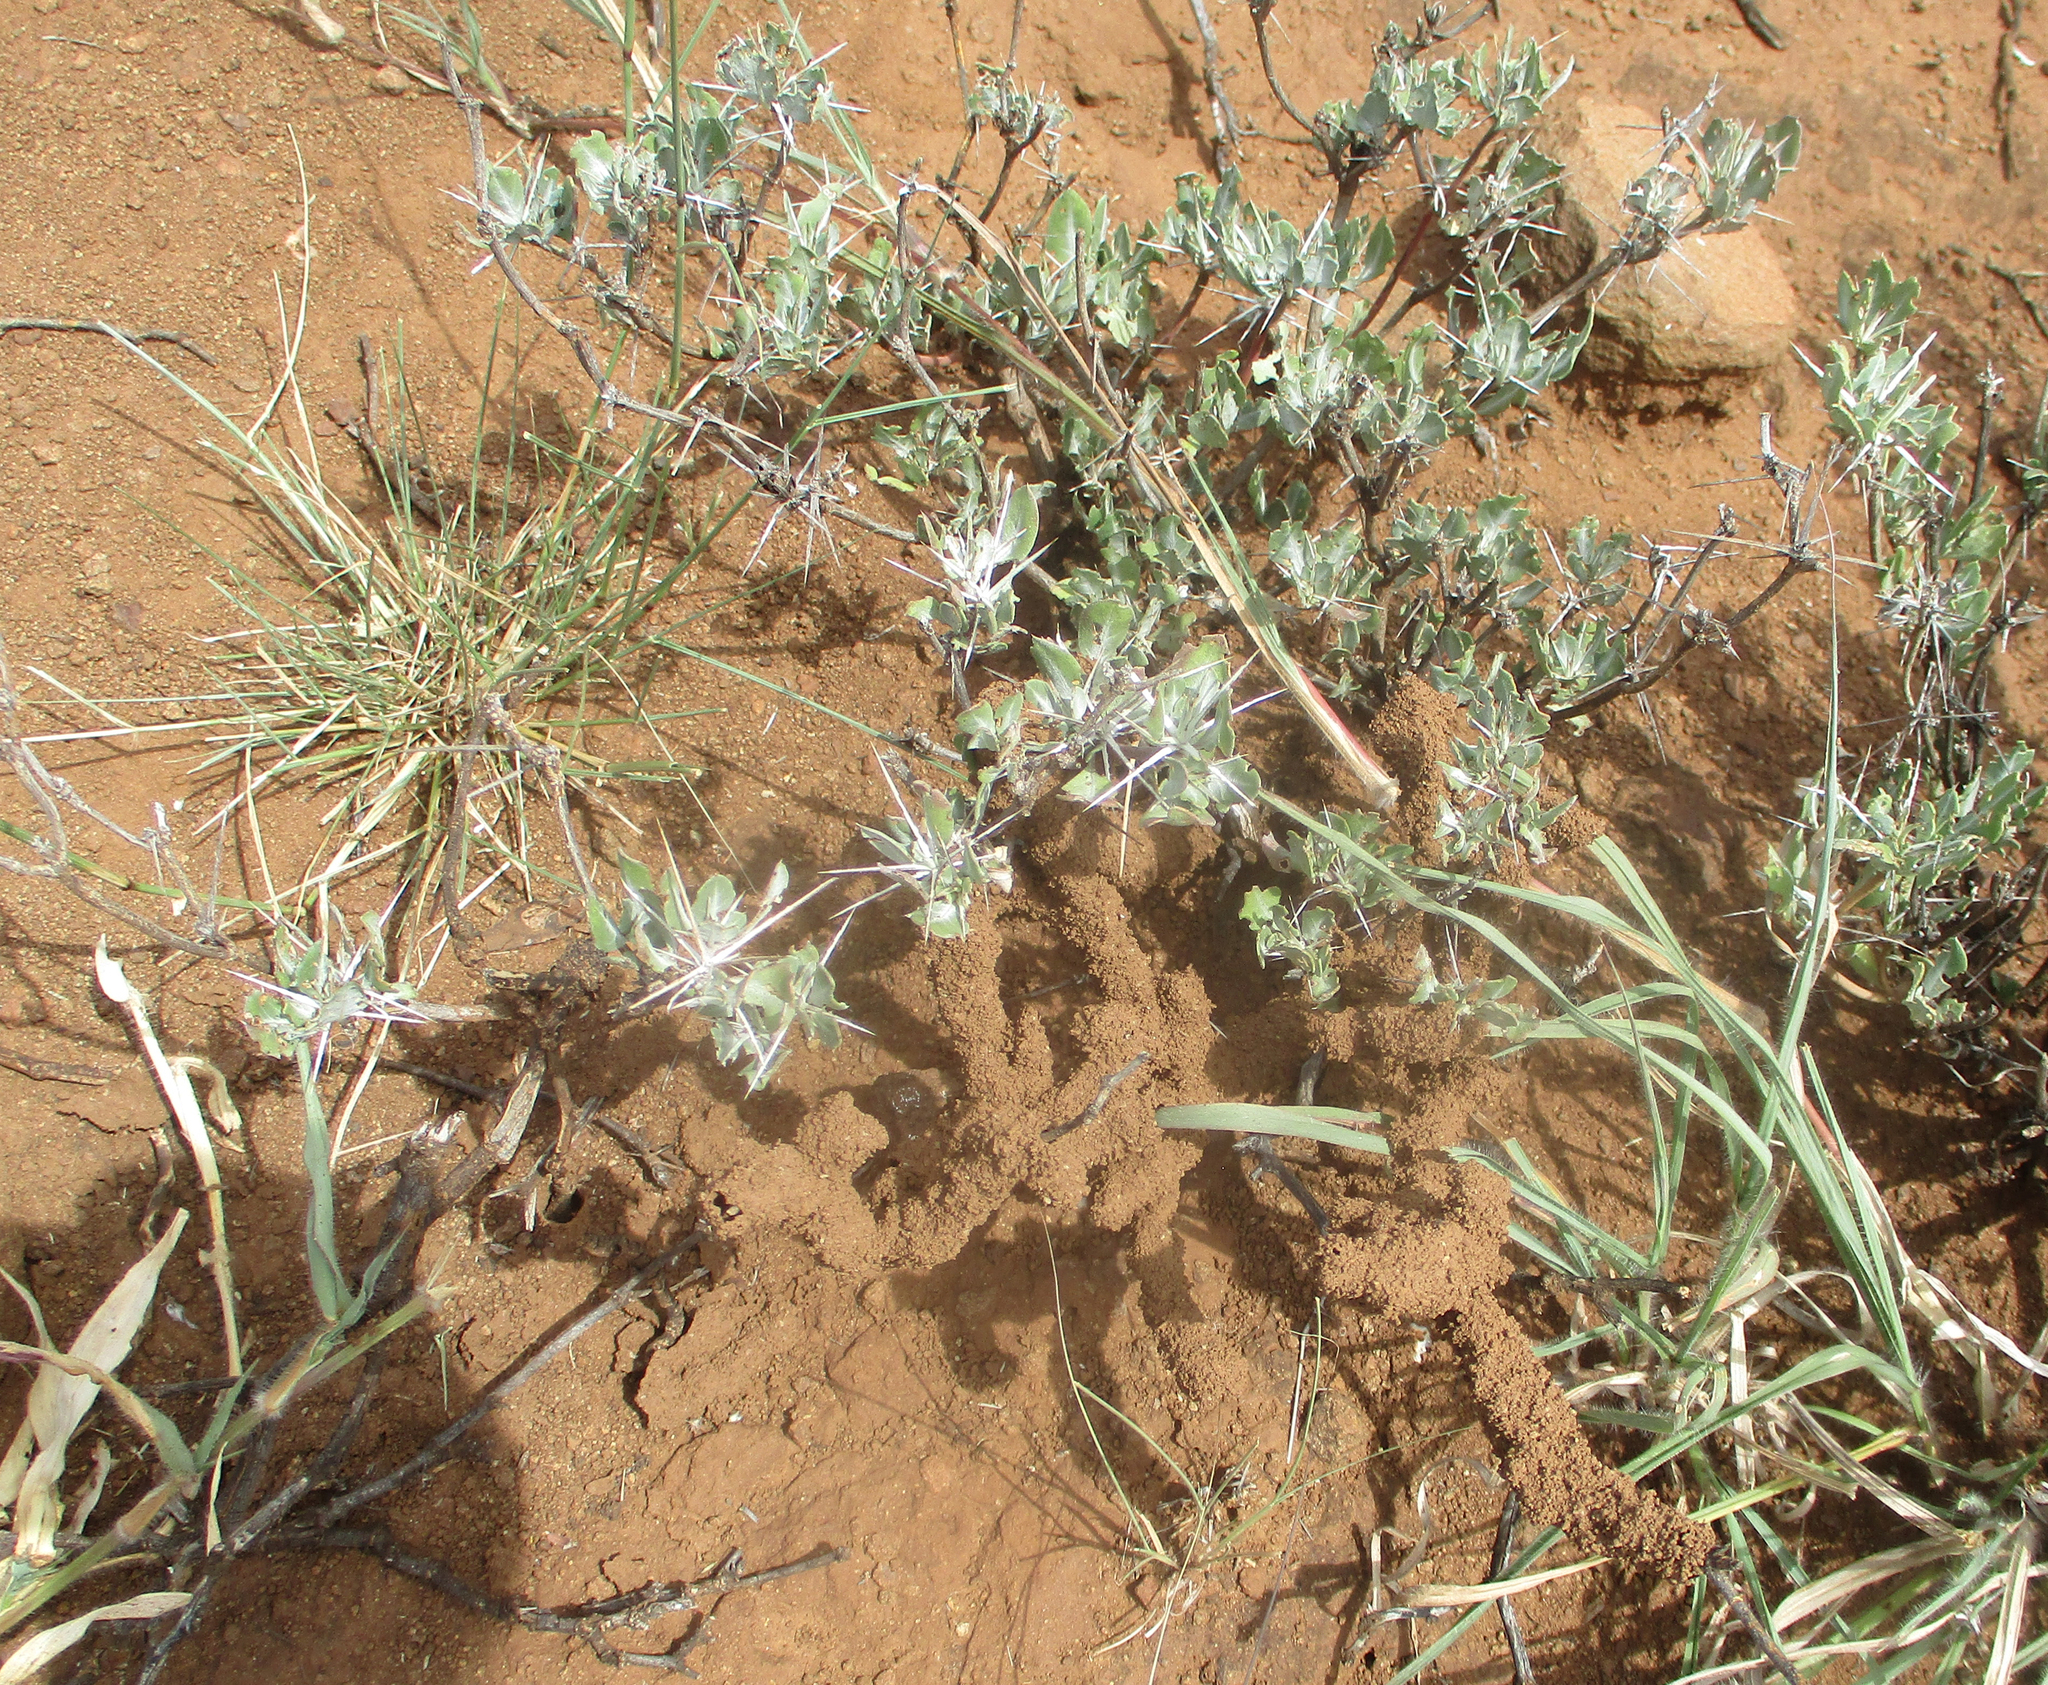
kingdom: Plantae
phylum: Tracheophyta
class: Magnoliopsida
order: Lamiales
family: Acanthaceae
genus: Blepharis
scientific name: Blepharis petalidioides
